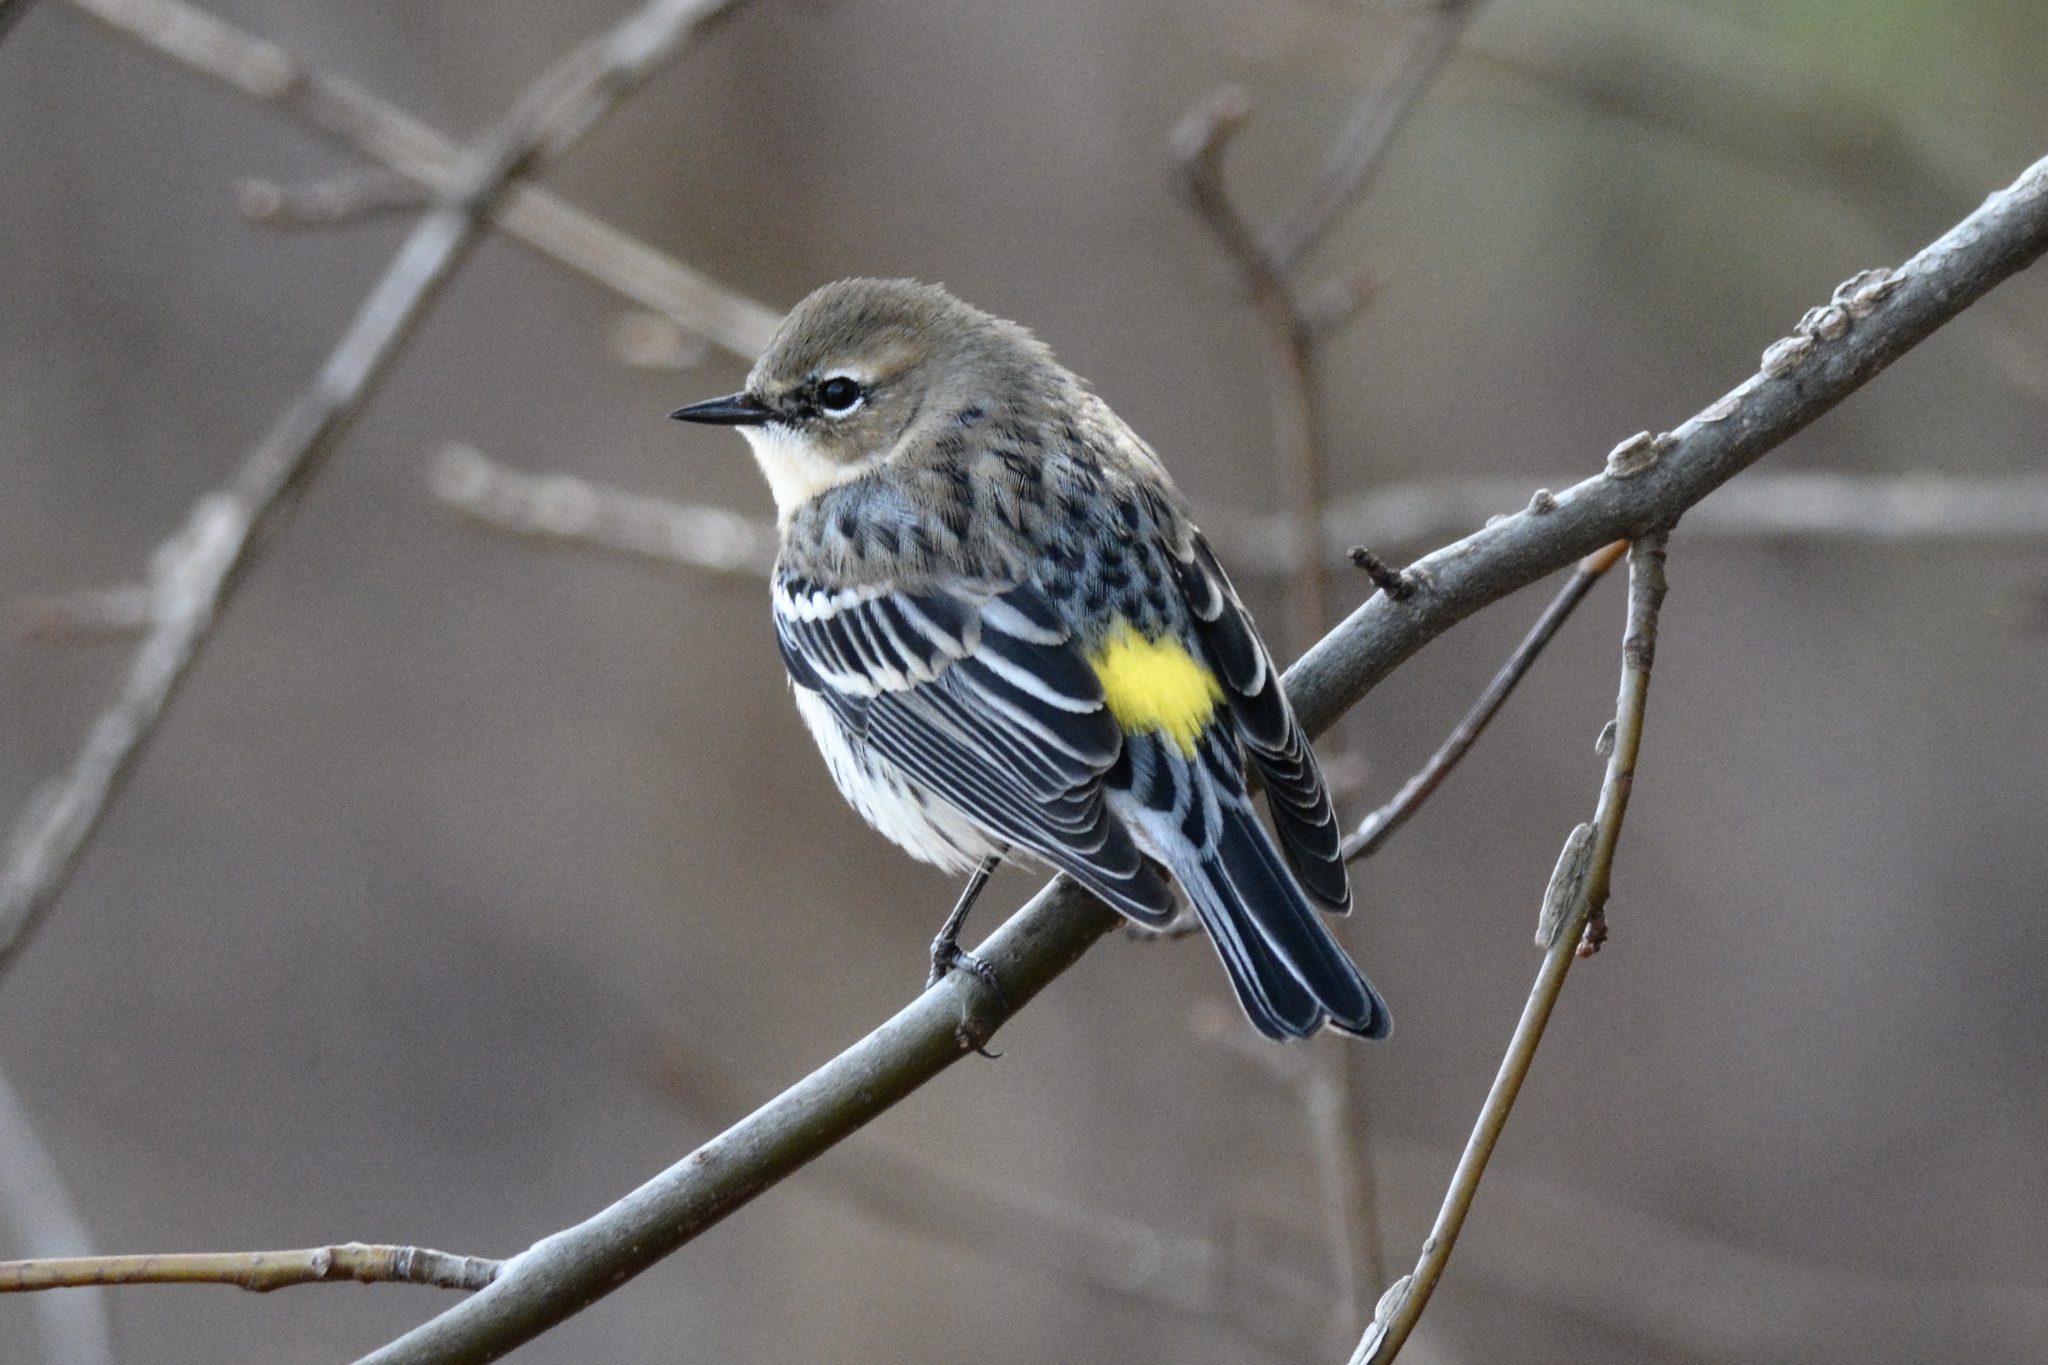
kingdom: Animalia
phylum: Chordata
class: Aves
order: Passeriformes
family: Parulidae
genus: Setophaga
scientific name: Setophaga coronata
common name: Myrtle warbler
